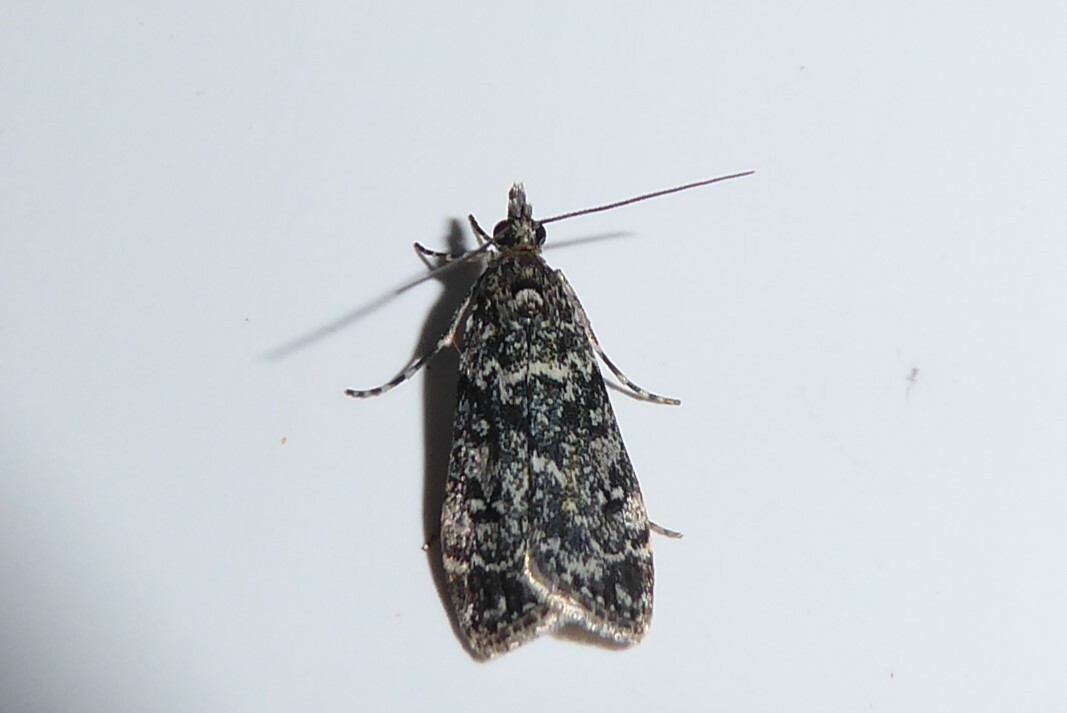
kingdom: Animalia
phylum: Arthropoda
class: Insecta
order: Lepidoptera
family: Crambidae
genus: Eudonia
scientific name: Eudonia philerga
